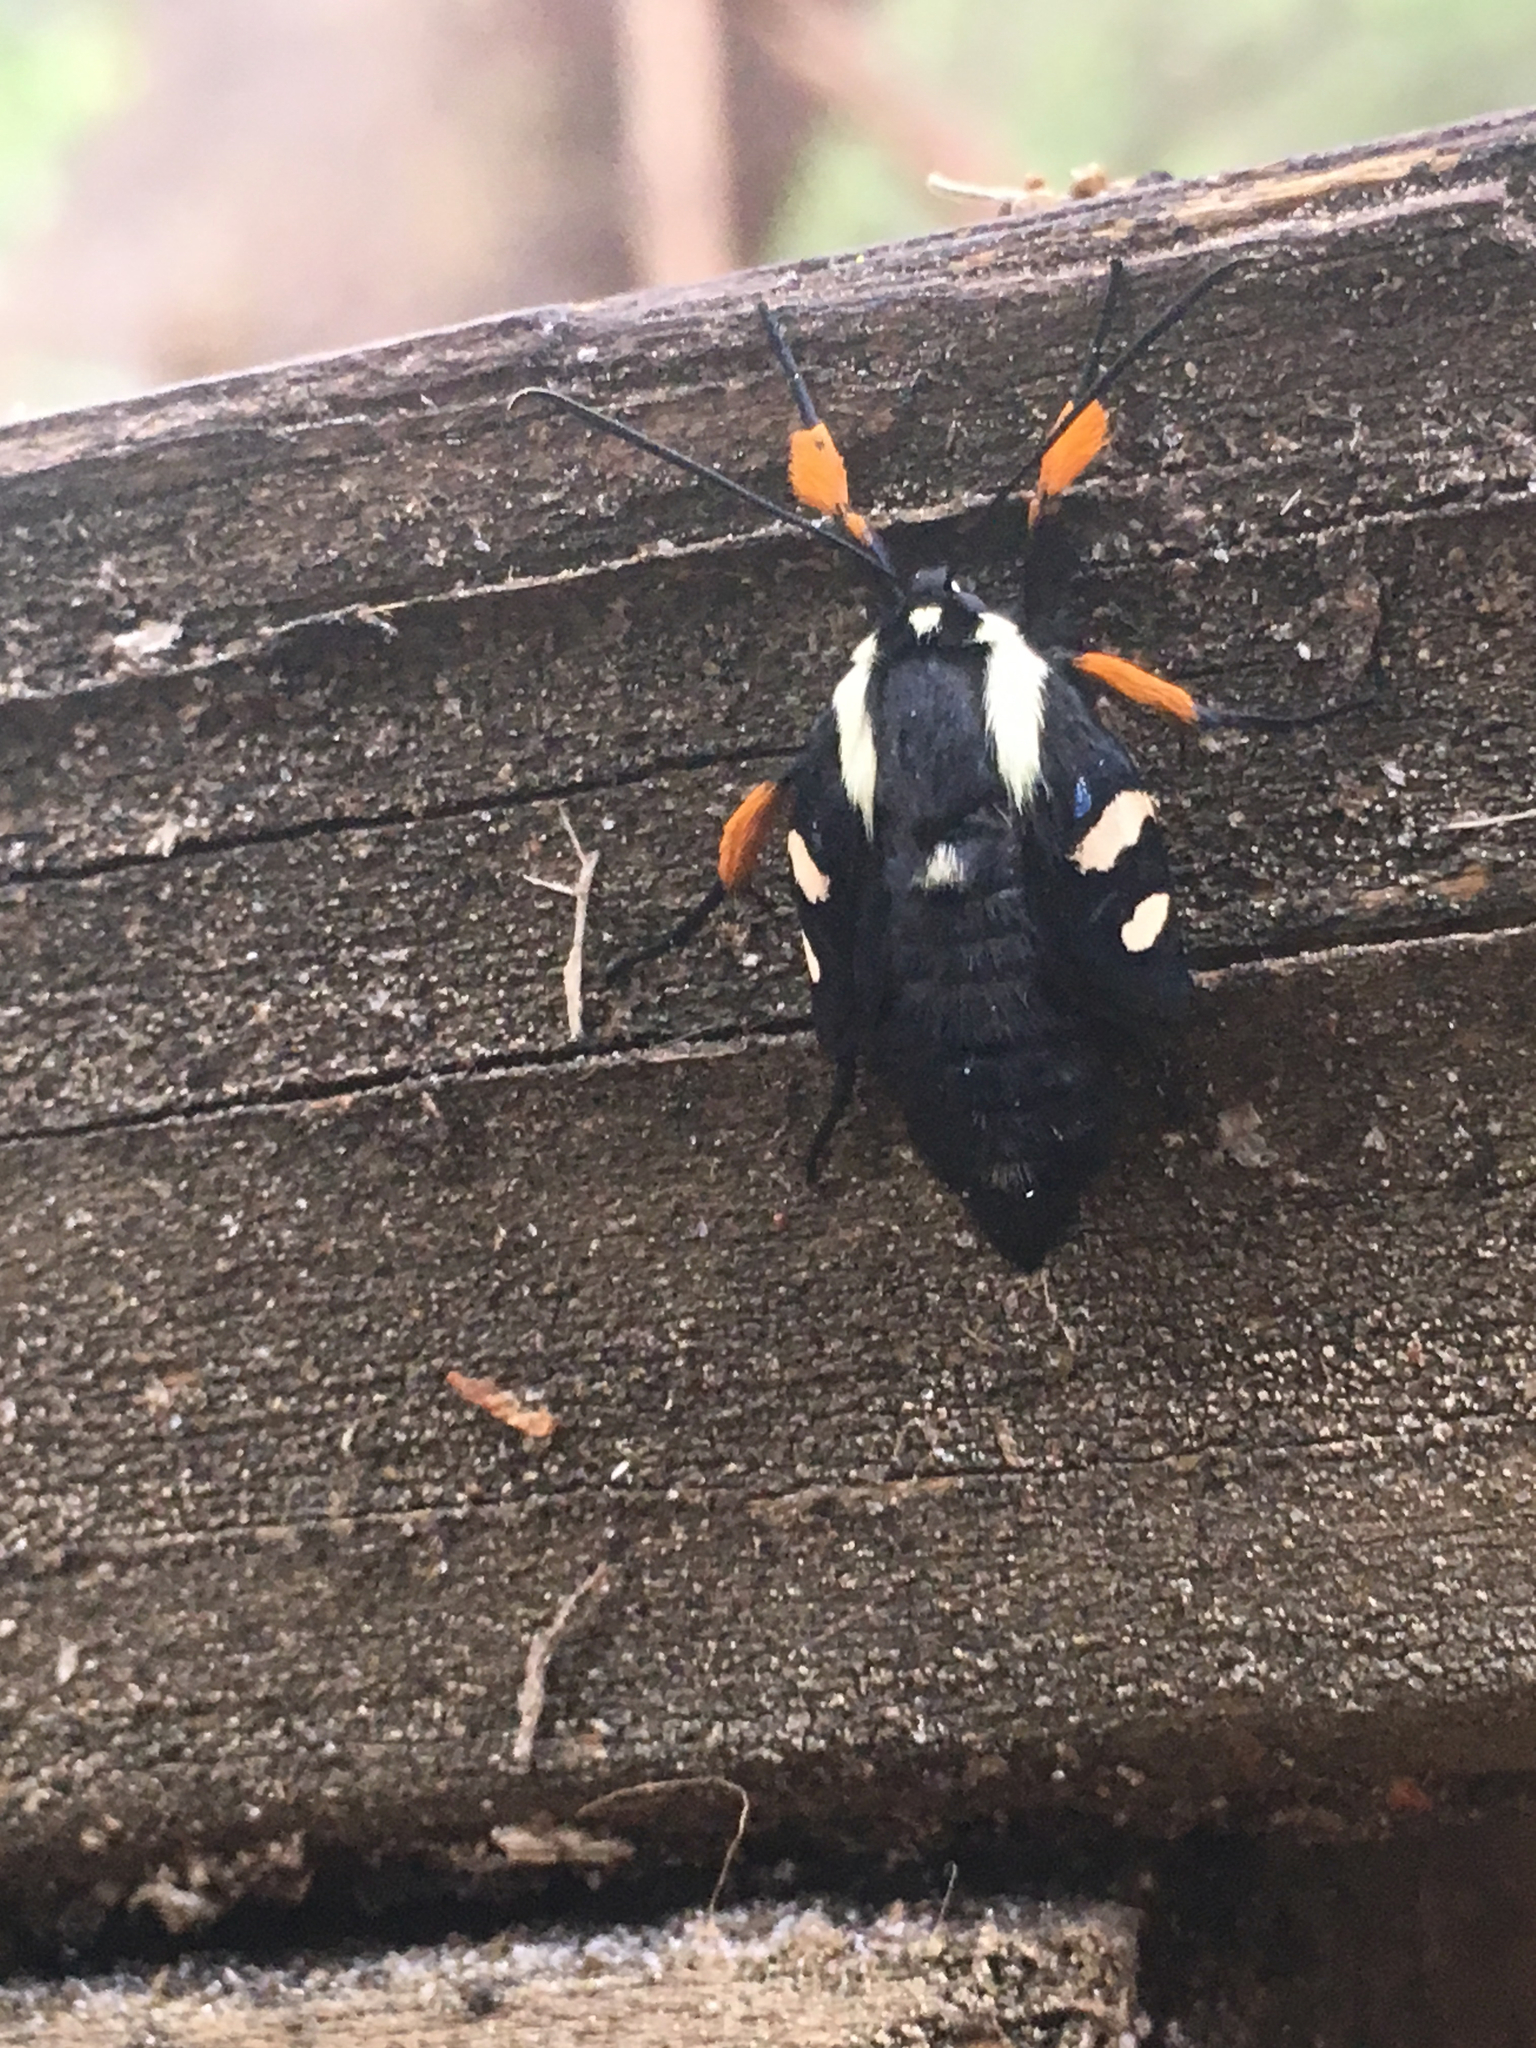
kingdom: Animalia
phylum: Arthropoda
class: Insecta
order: Lepidoptera
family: Noctuidae
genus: Alypia
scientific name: Alypia wittfeldii
